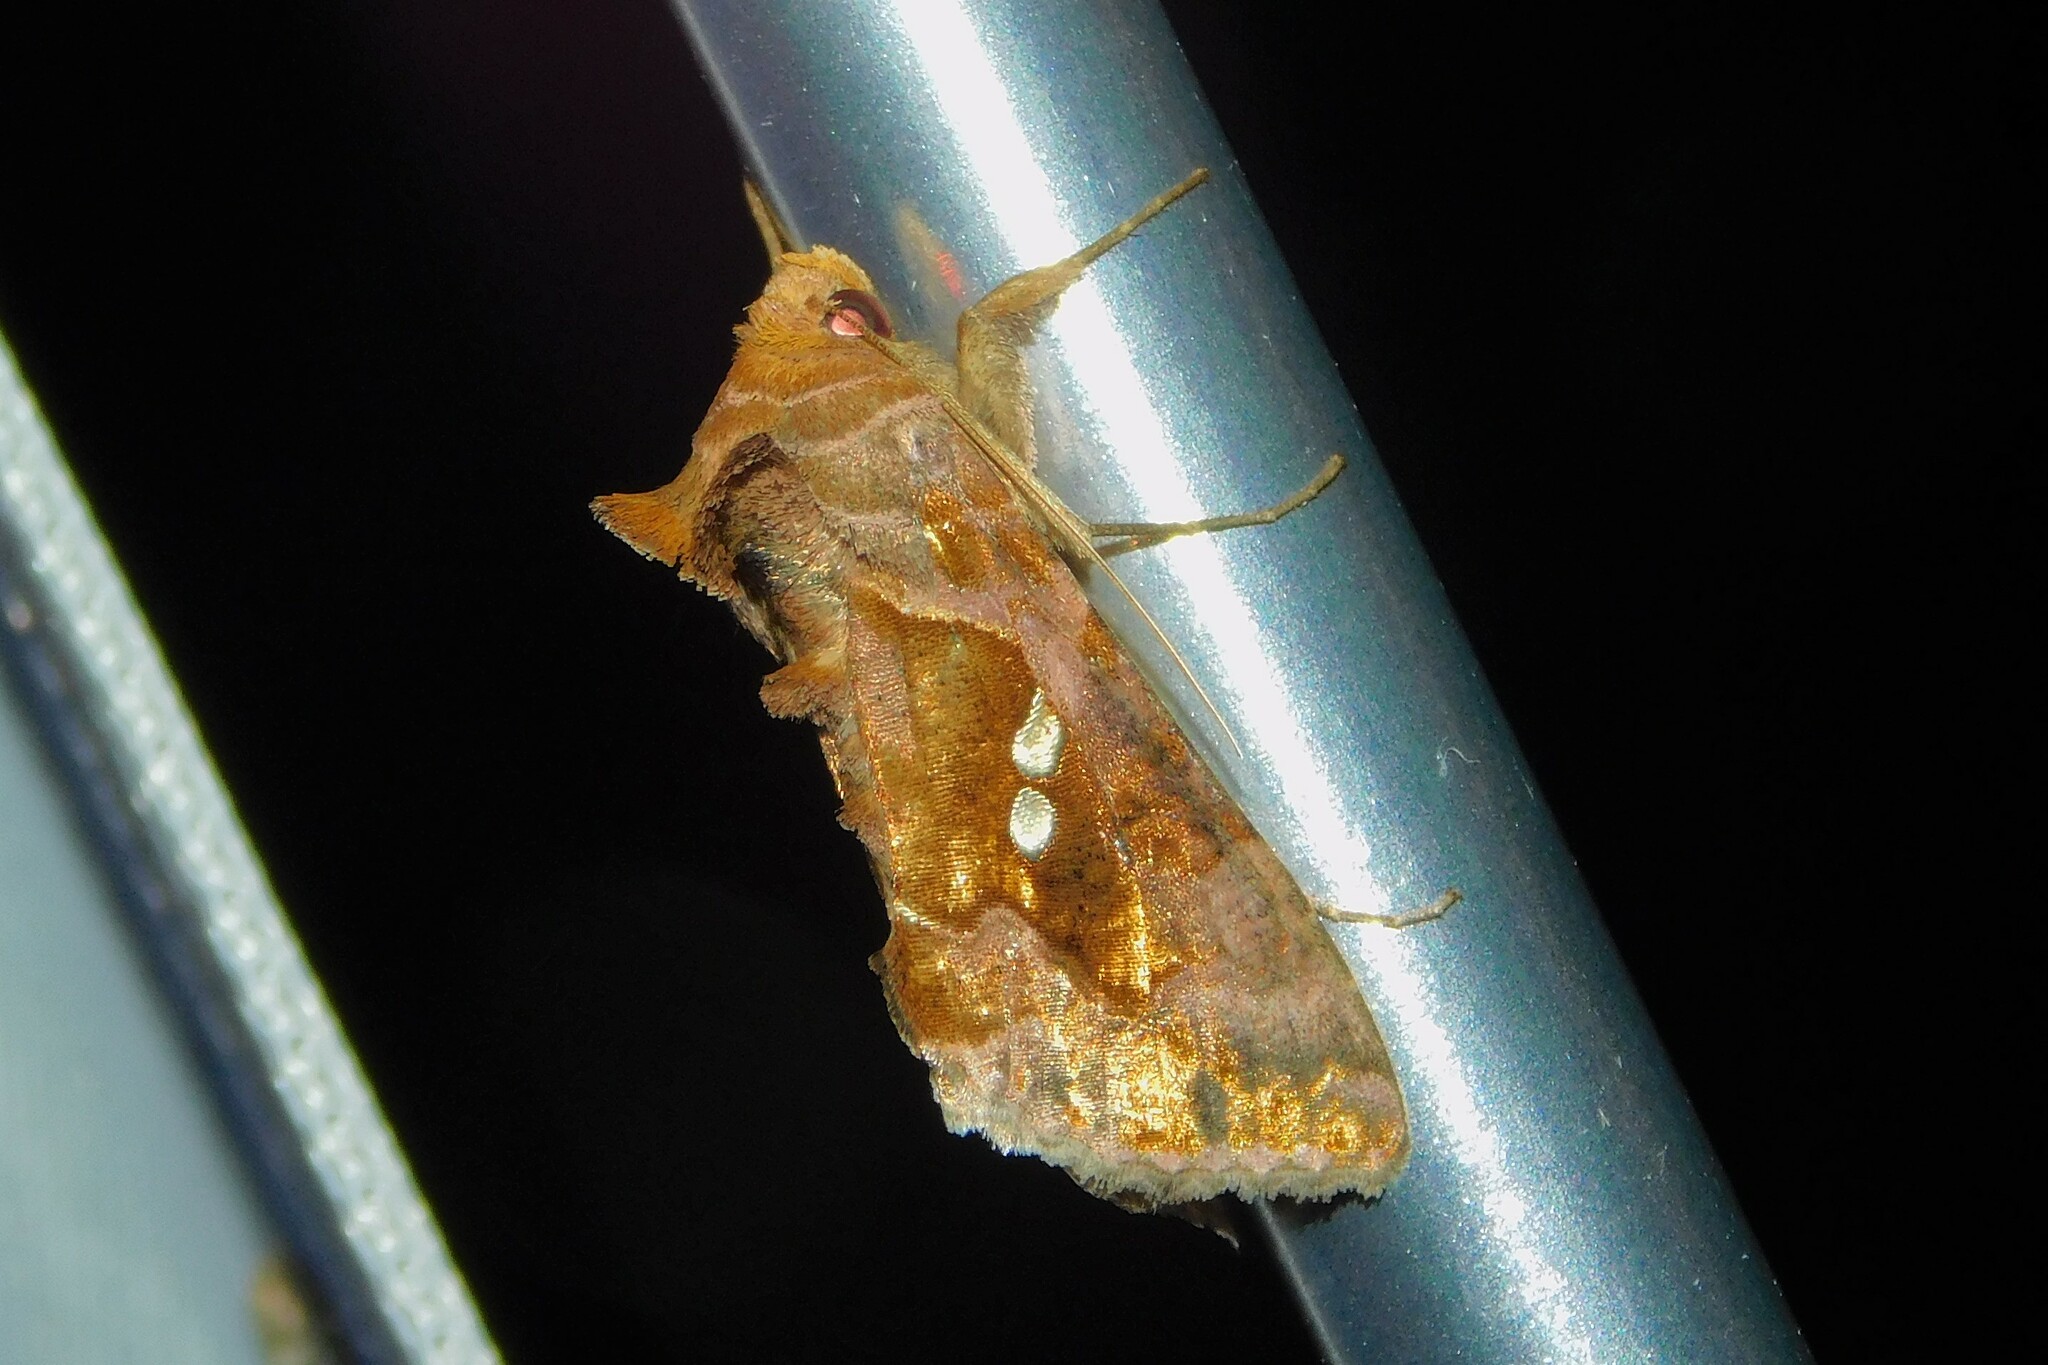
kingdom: Animalia
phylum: Arthropoda
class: Insecta
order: Lepidoptera
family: Noctuidae
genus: Chrysodeixis
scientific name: Chrysodeixis chalcites
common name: Golden twin-spot
